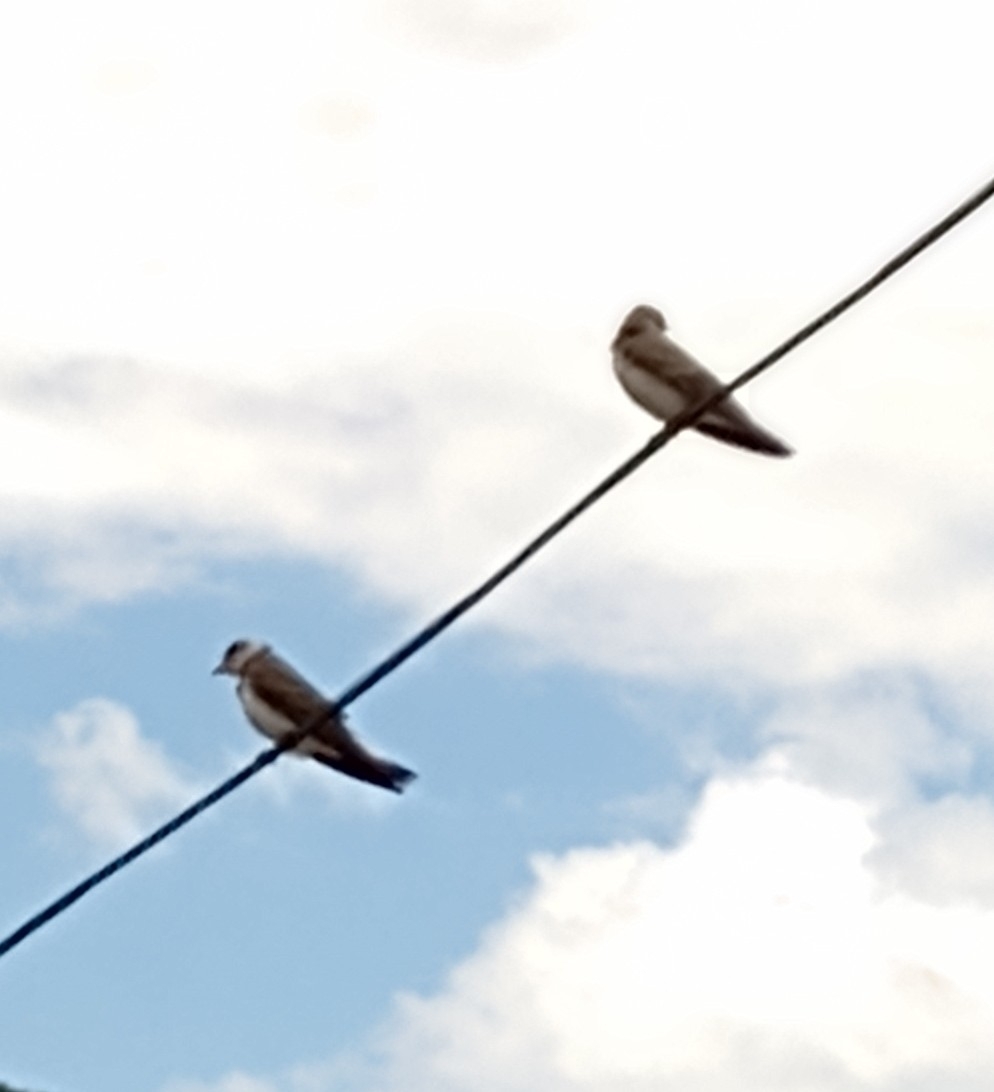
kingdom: Animalia
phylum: Chordata
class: Aves
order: Passeriformes
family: Hirundinidae
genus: Progne
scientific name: Progne tapera
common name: Brown-chested martin
